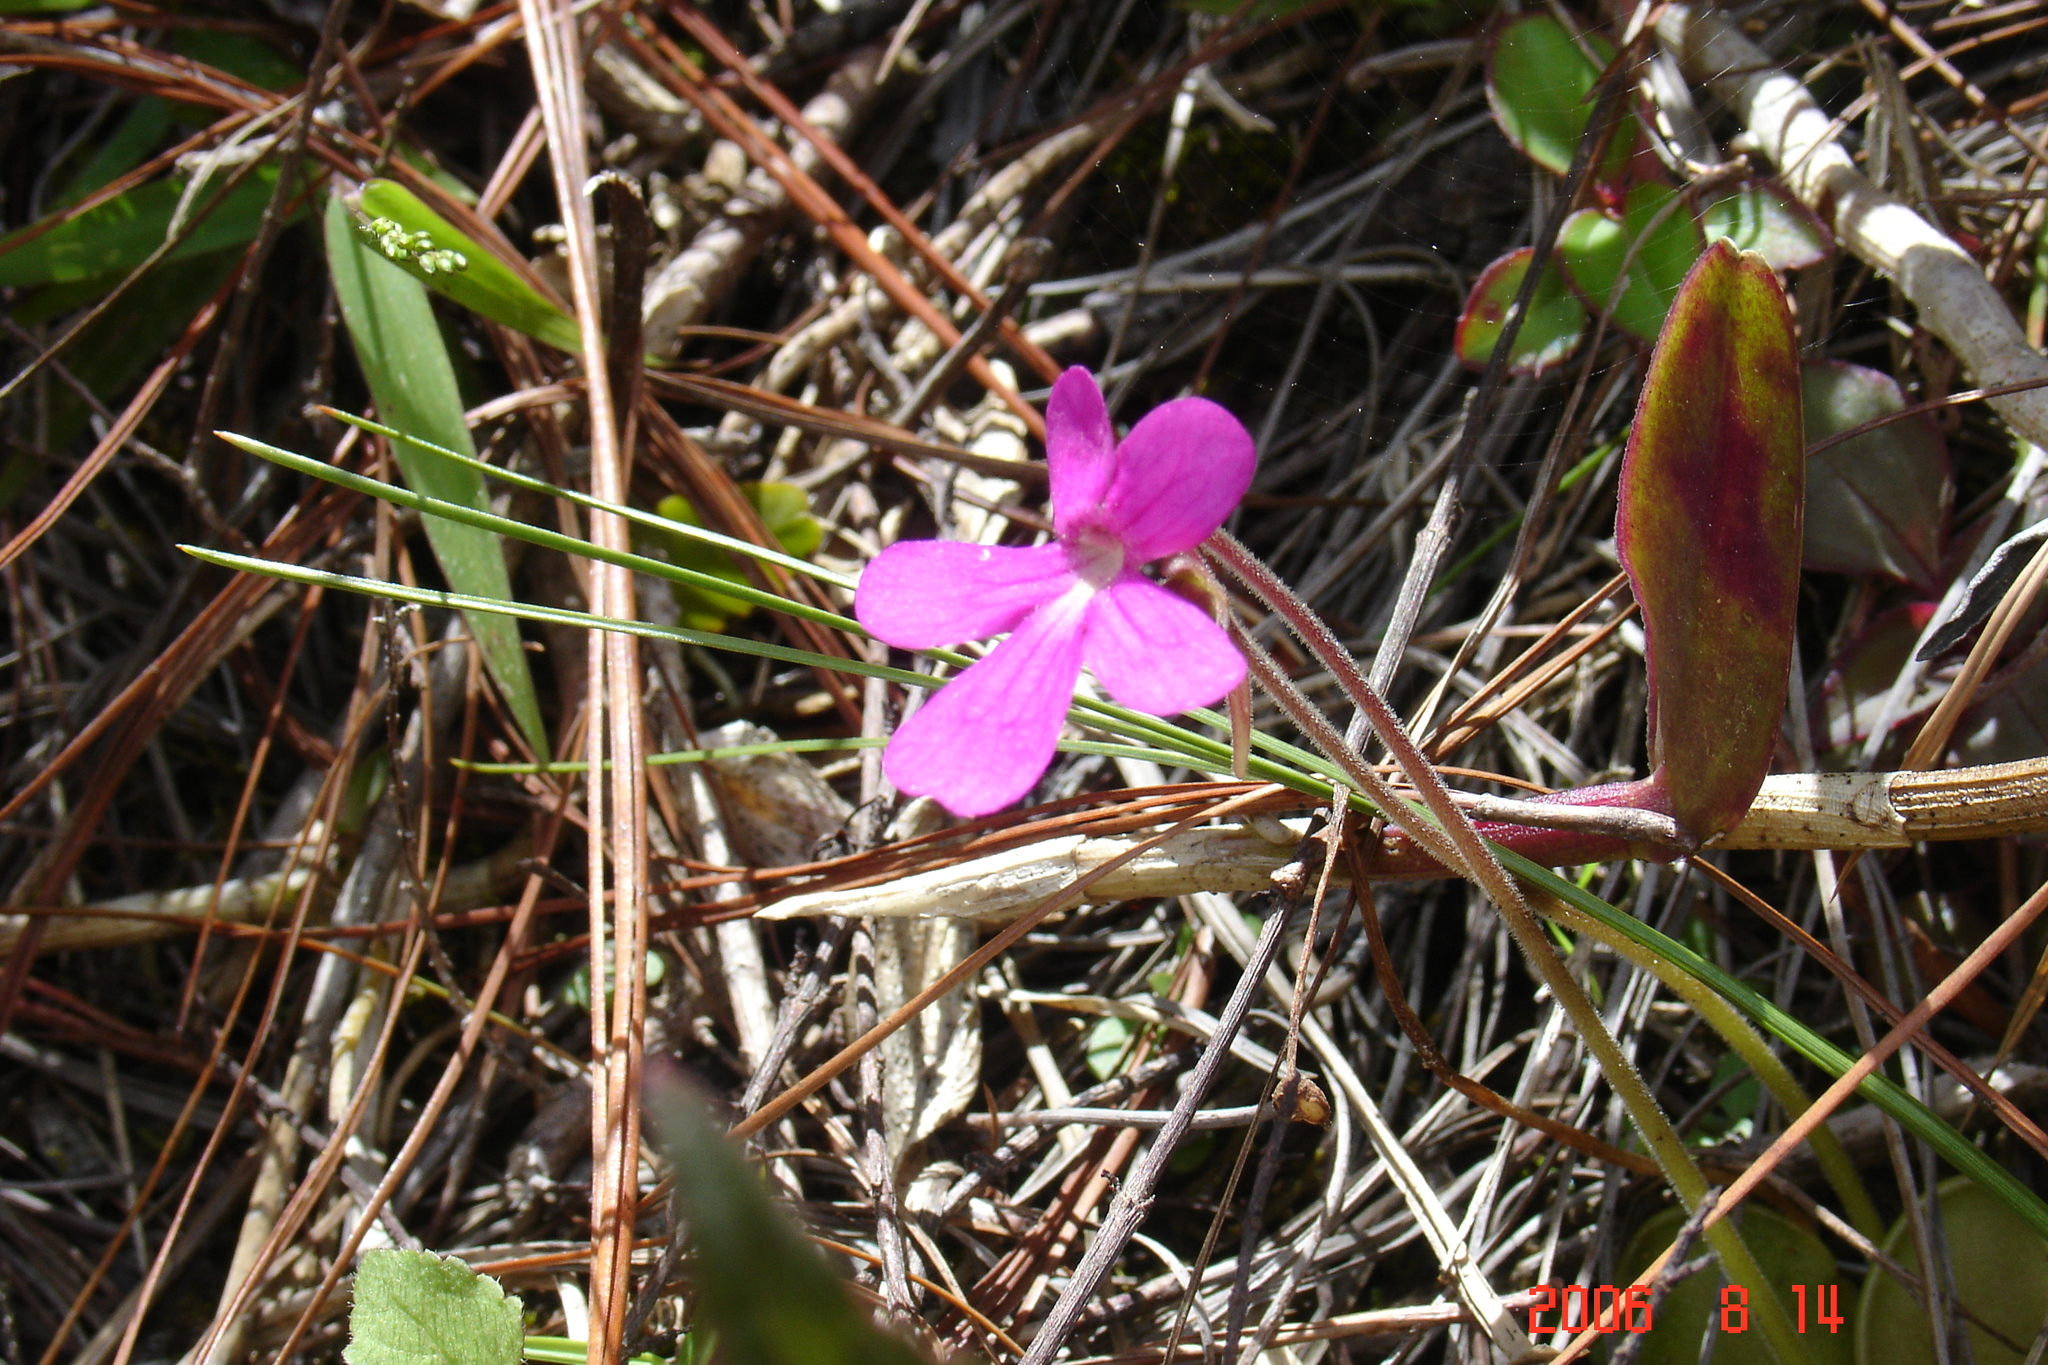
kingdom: Plantae
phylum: Tracheophyta
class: Magnoliopsida
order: Lamiales
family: Lentibulariaceae
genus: Pinguicula
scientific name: Pinguicula moranensis
